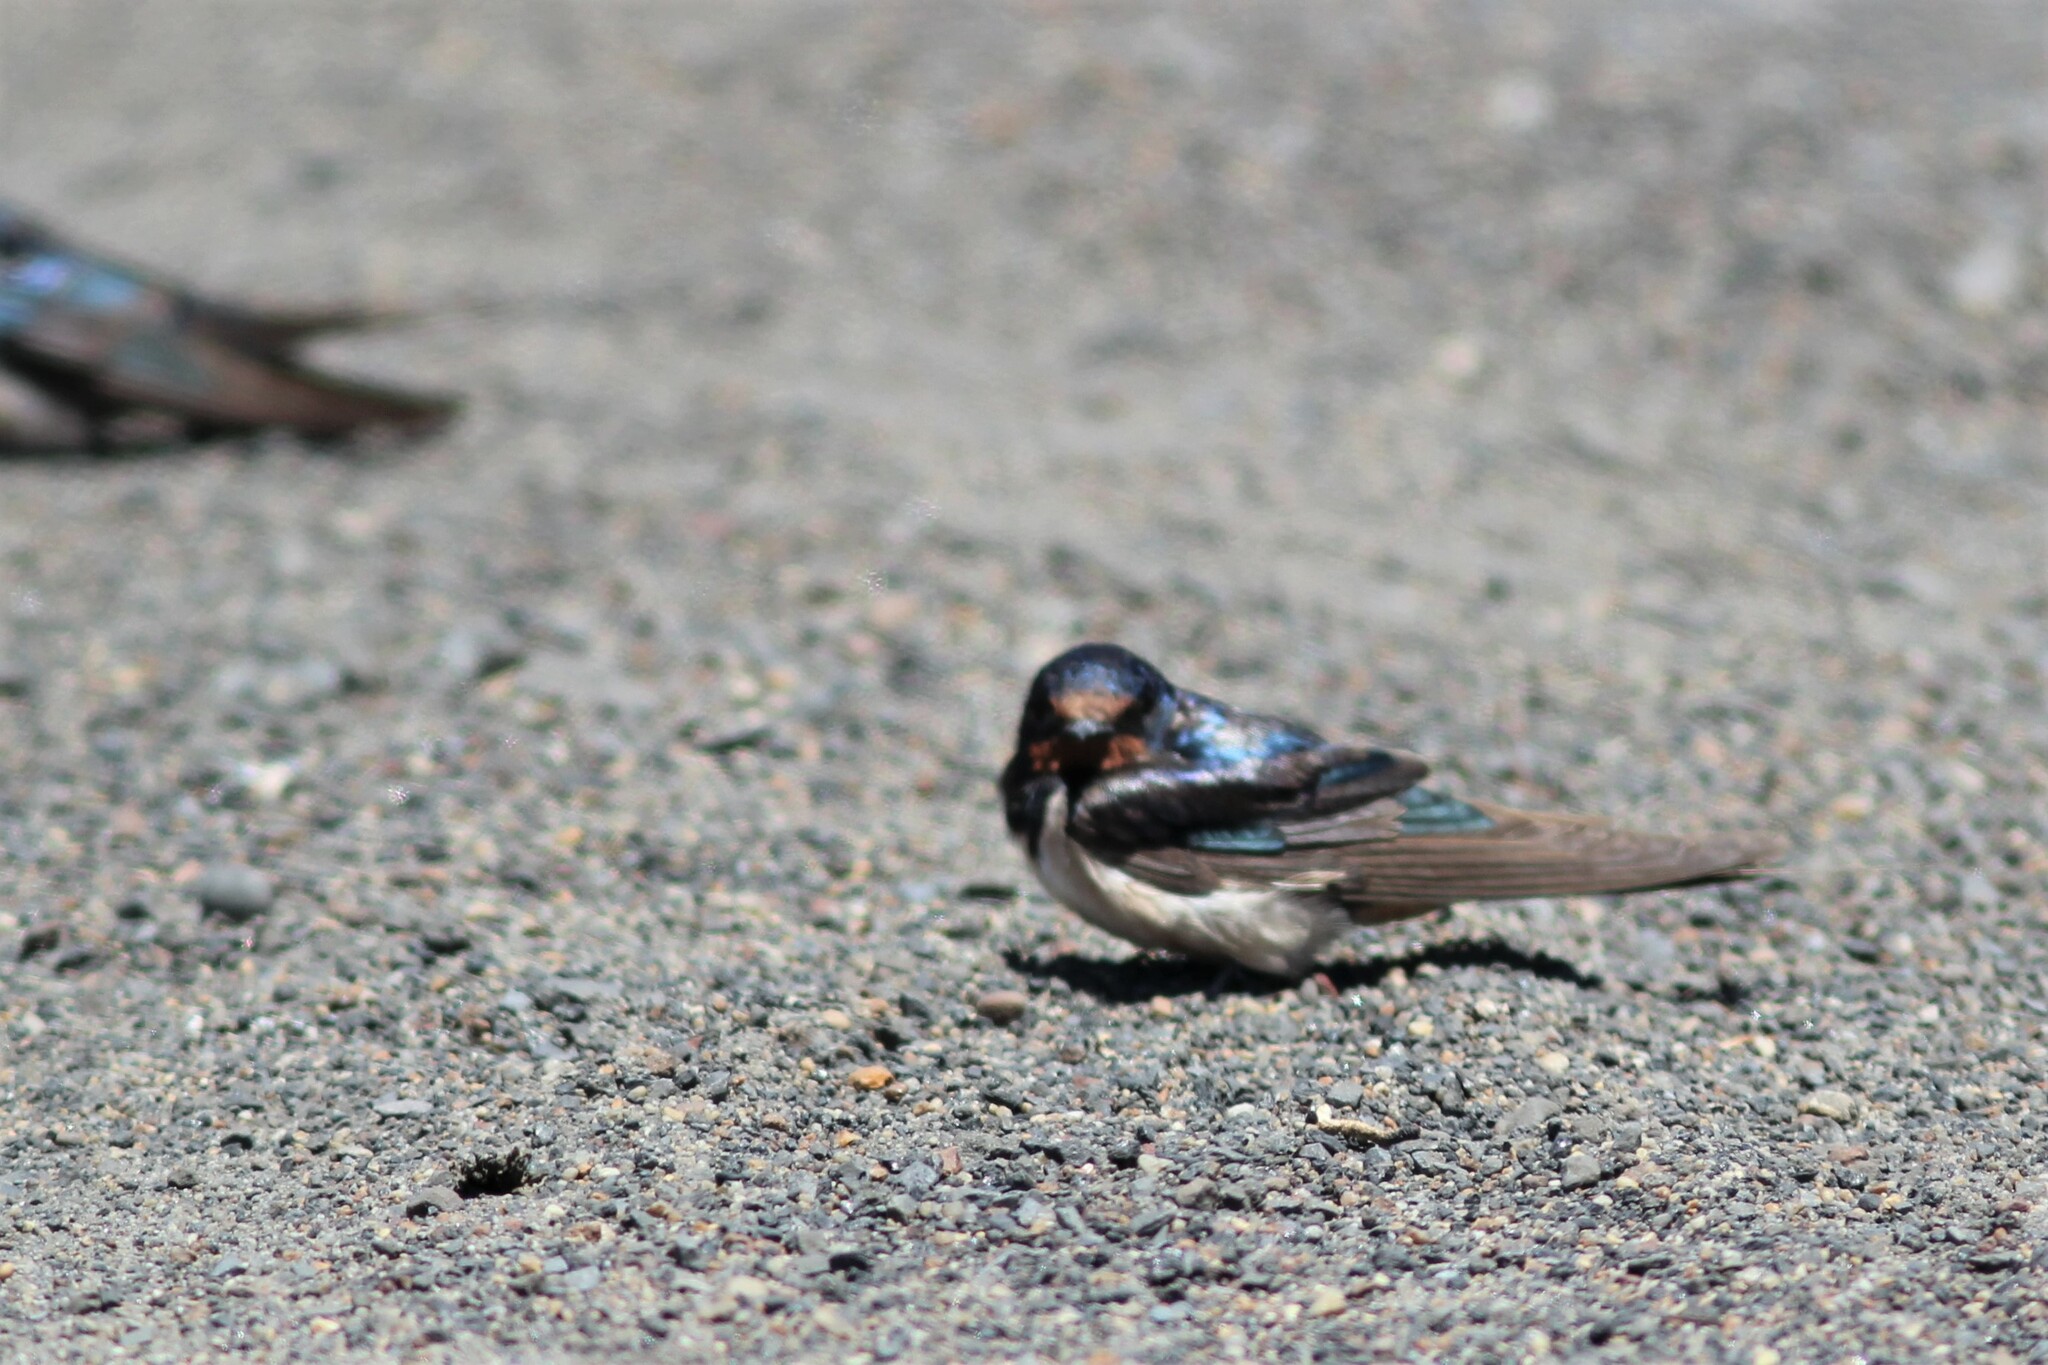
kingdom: Animalia
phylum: Chordata
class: Aves
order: Passeriformes
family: Hirundinidae
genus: Hirundo
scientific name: Hirundo rustica
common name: Barn swallow
